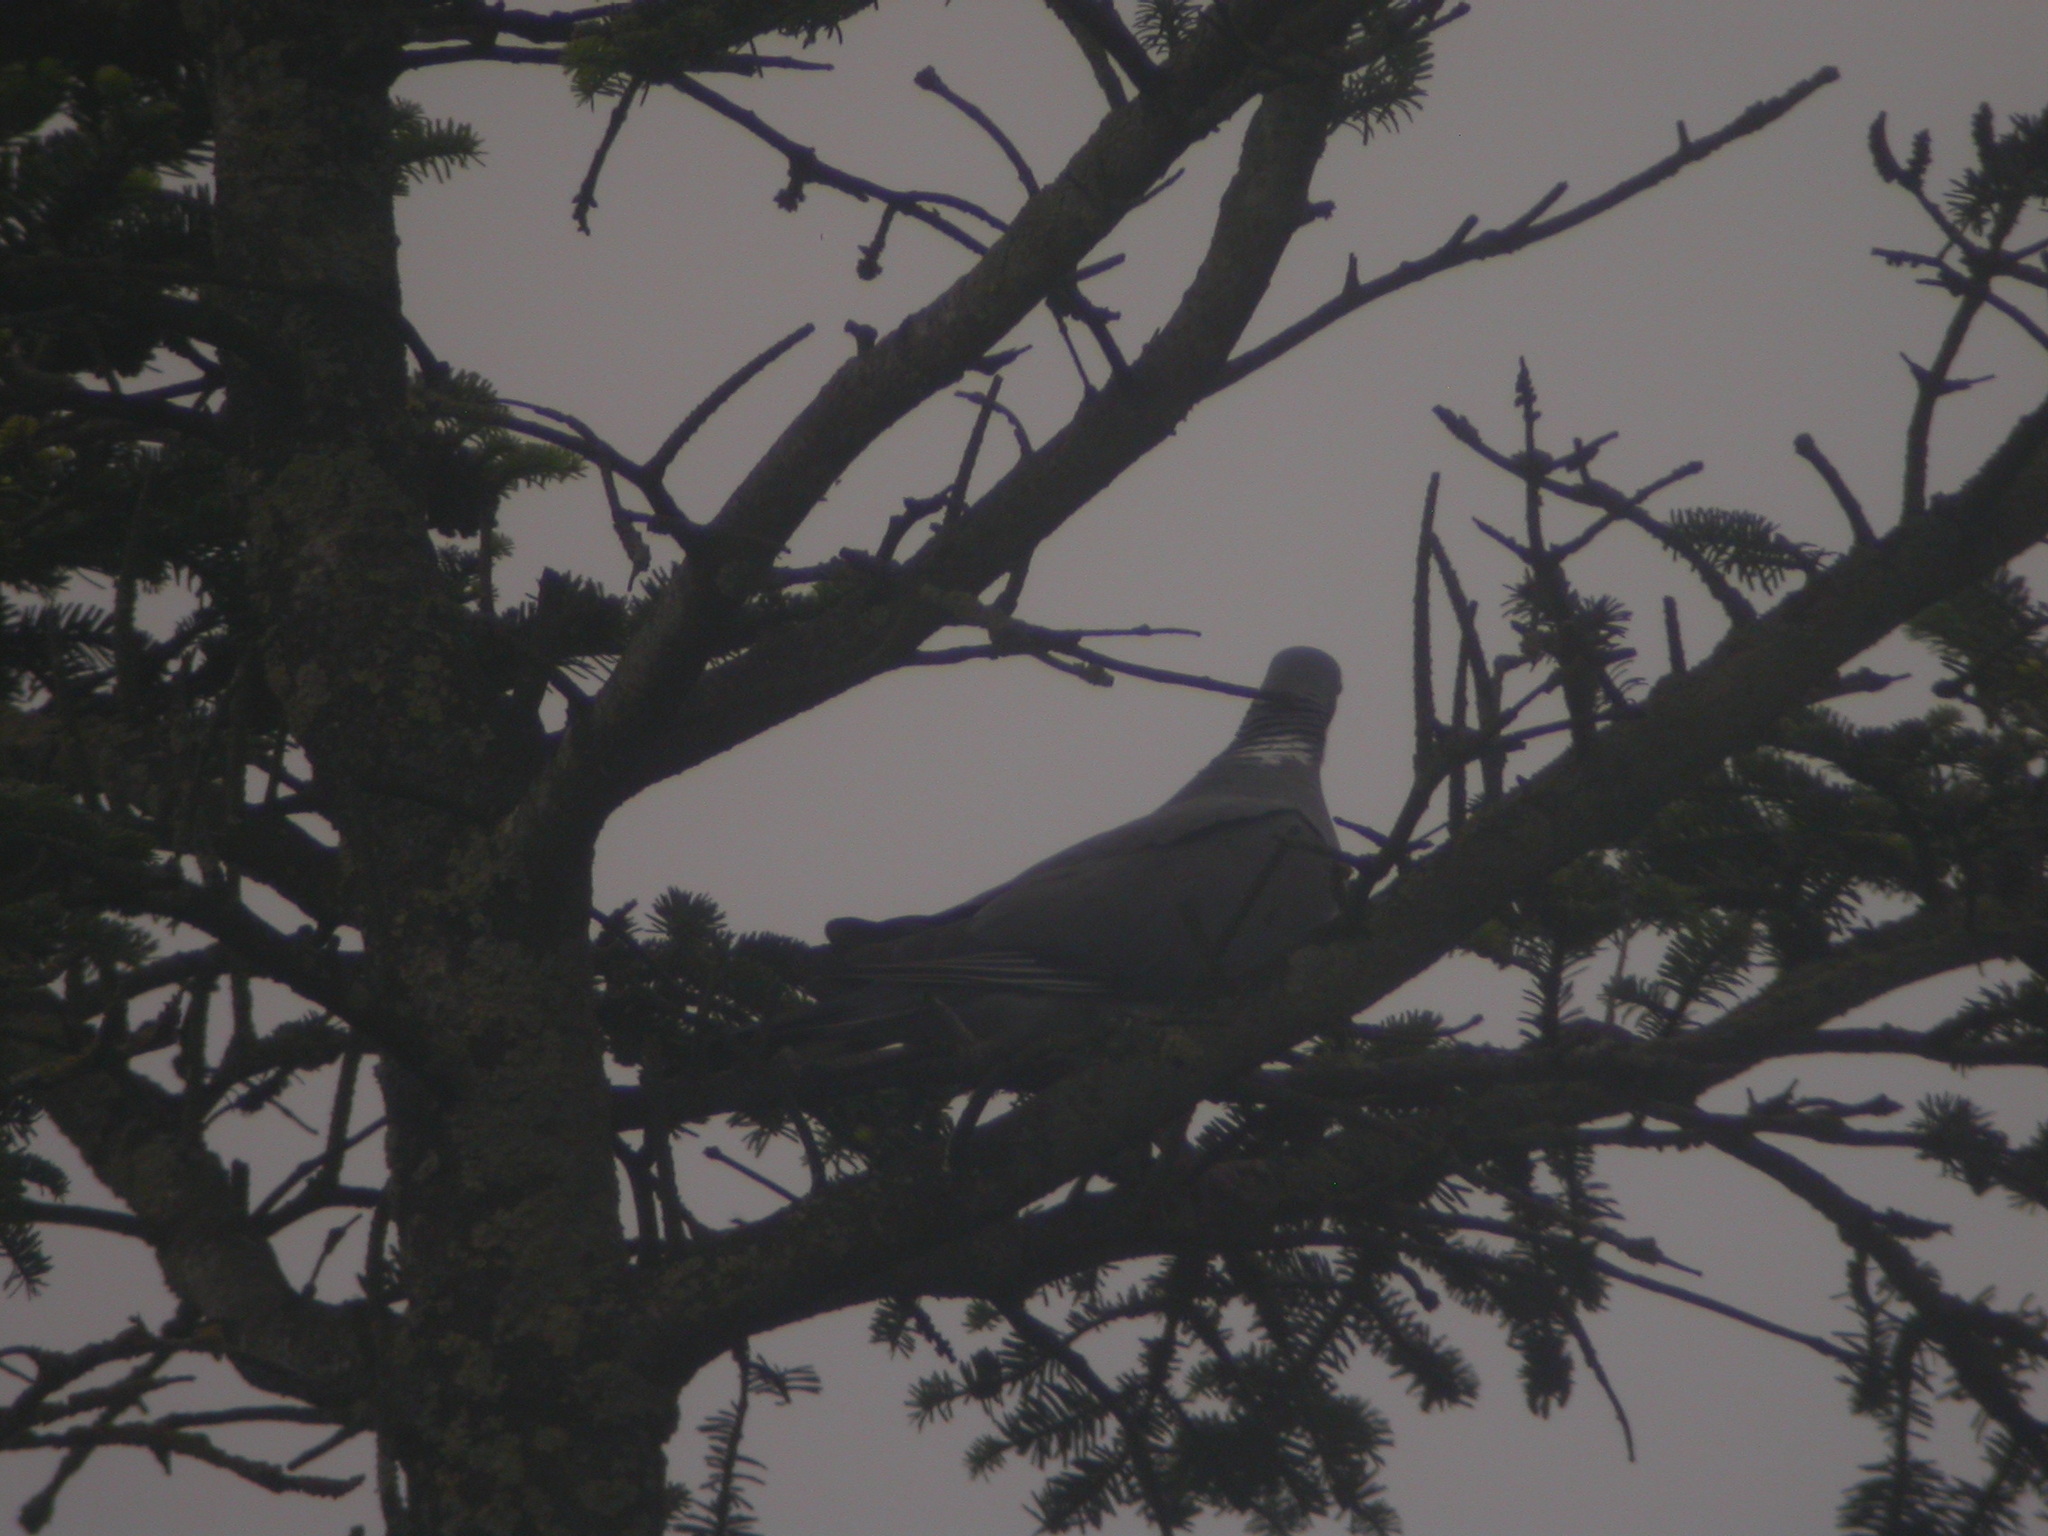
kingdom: Animalia
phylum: Chordata
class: Aves
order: Columbiformes
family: Columbidae
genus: Columba
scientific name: Columba palumbus
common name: Common wood pigeon
